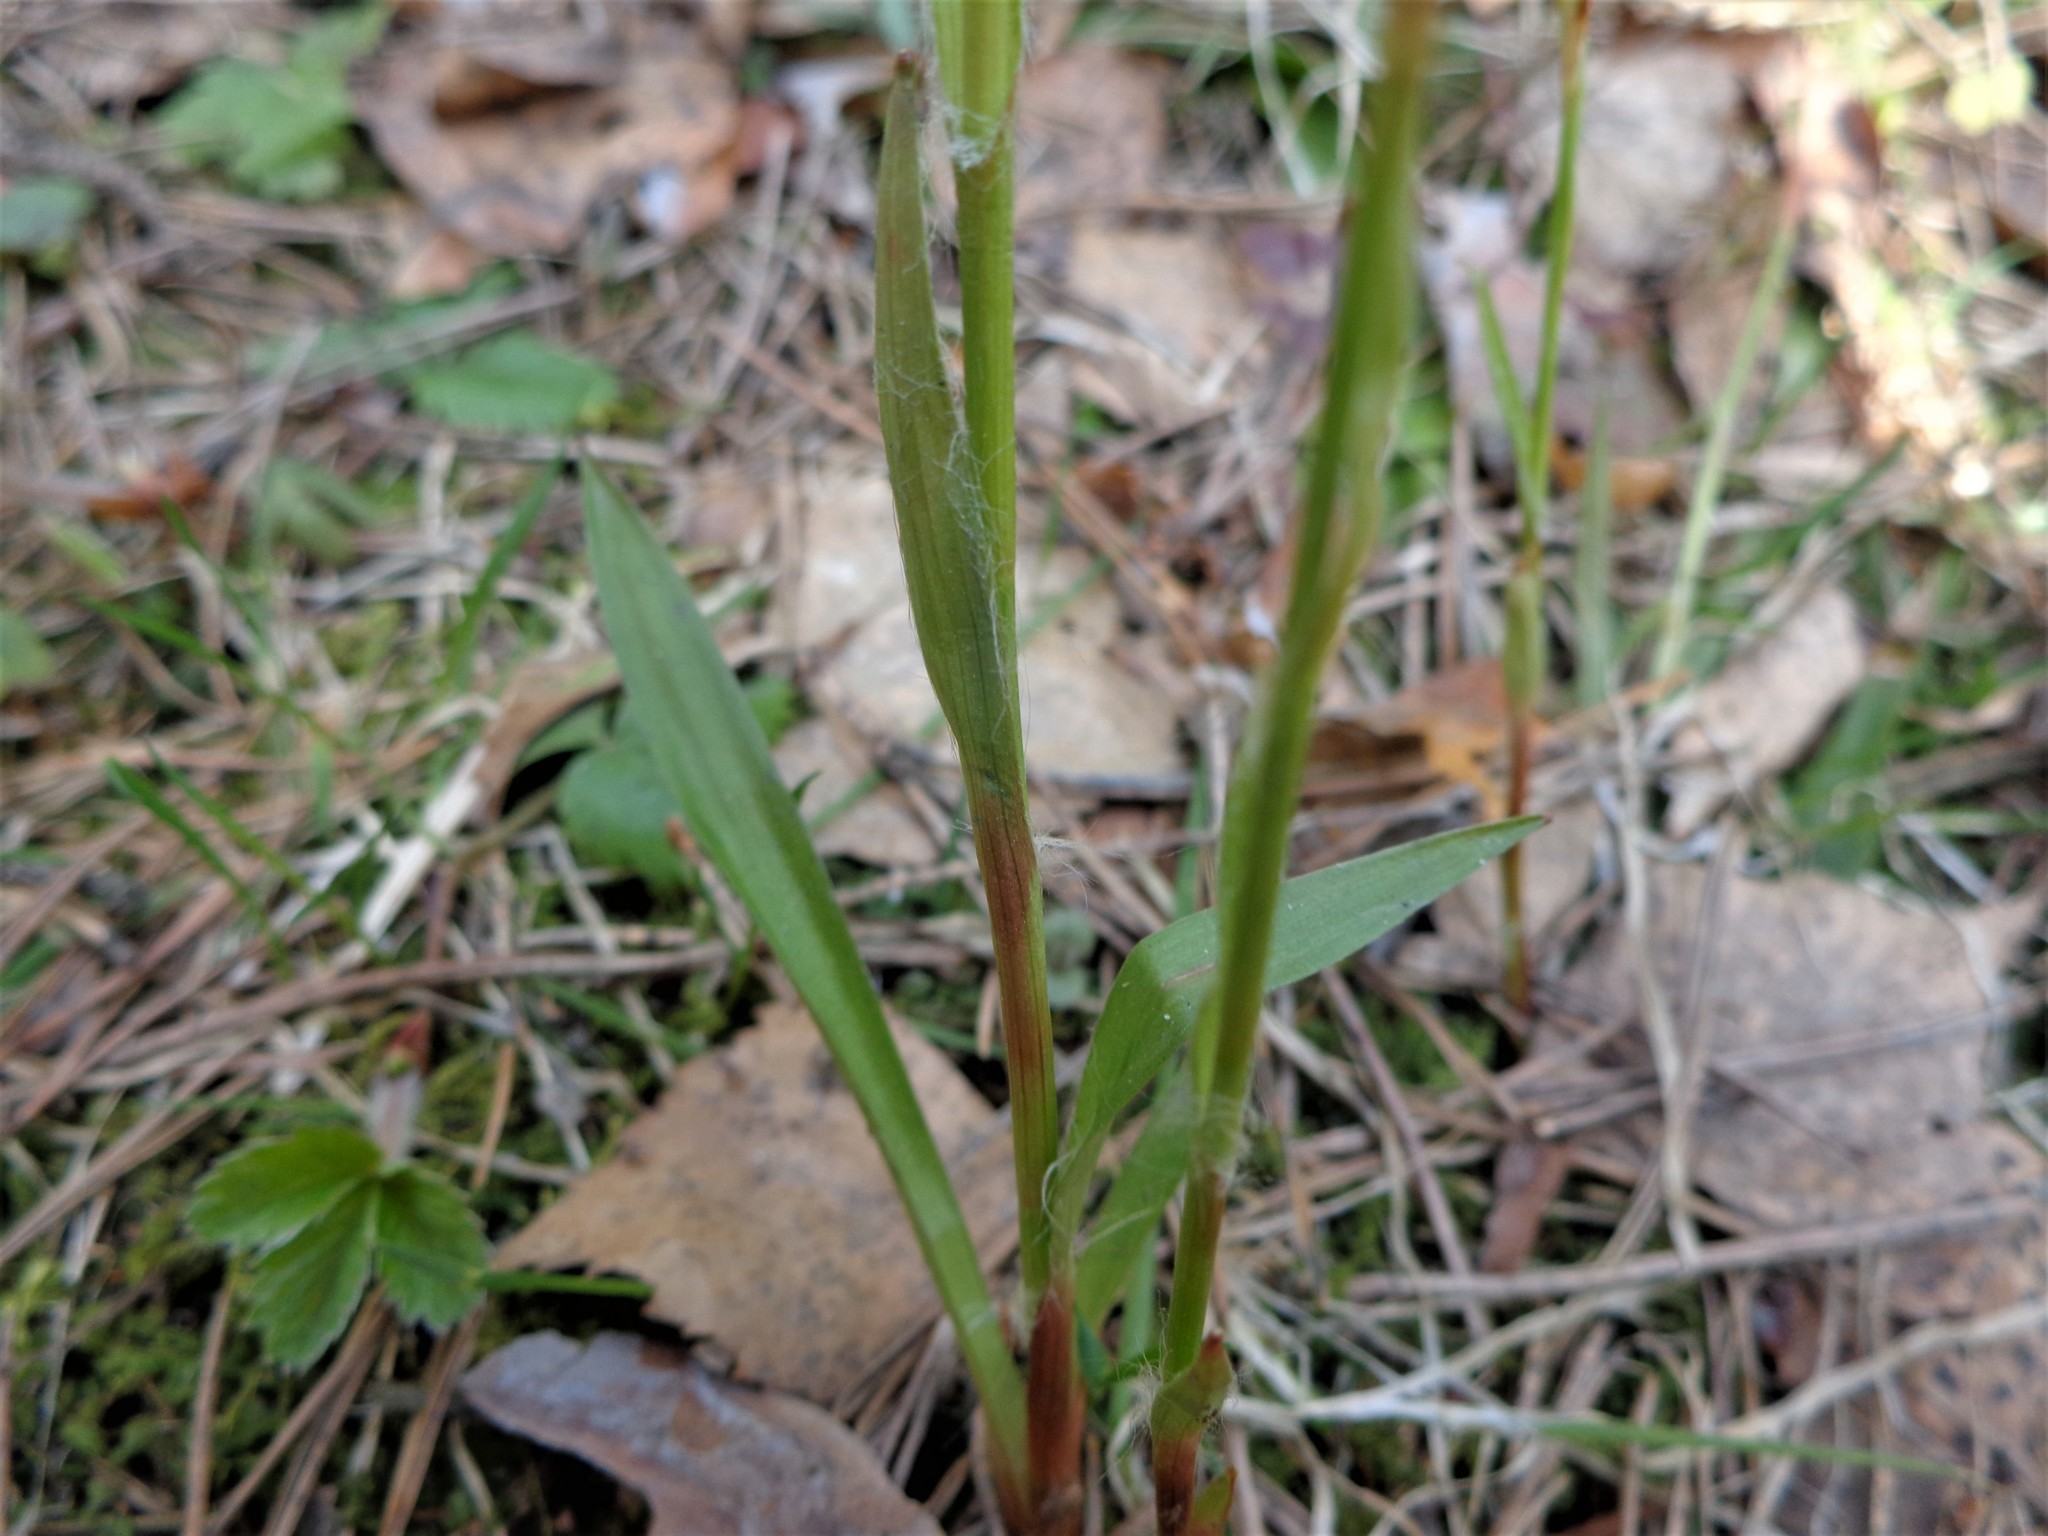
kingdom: Plantae
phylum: Tracheophyta
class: Liliopsida
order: Poales
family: Juncaceae
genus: Luzula
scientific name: Luzula pilosa
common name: Hairy wood-rush
